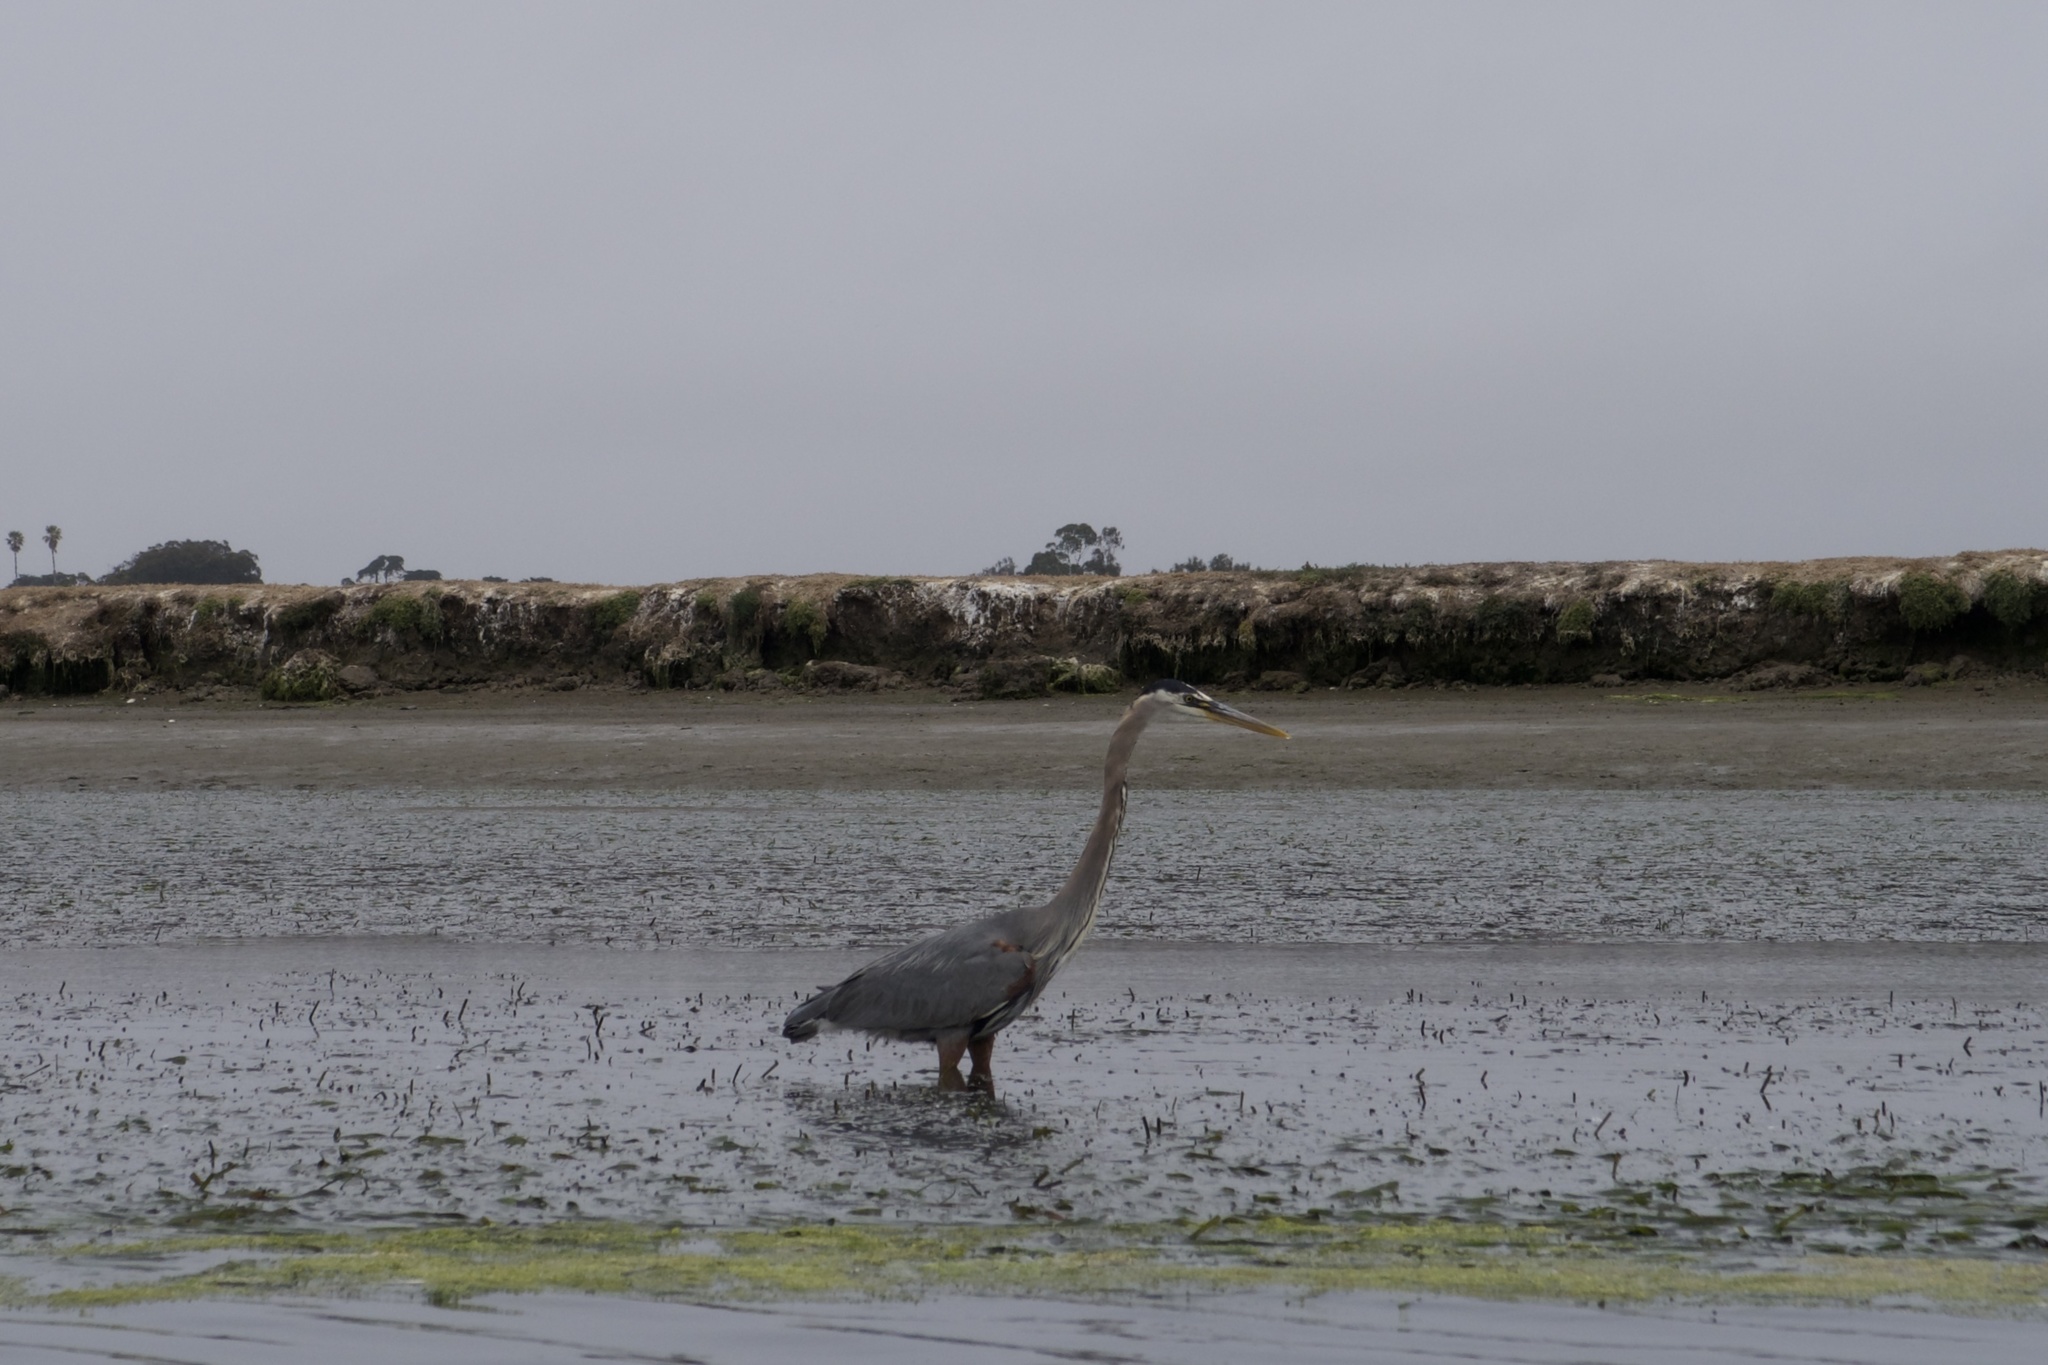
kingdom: Animalia
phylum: Chordata
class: Aves
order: Pelecaniformes
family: Ardeidae
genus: Ardea
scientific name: Ardea herodias
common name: Great blue heron
